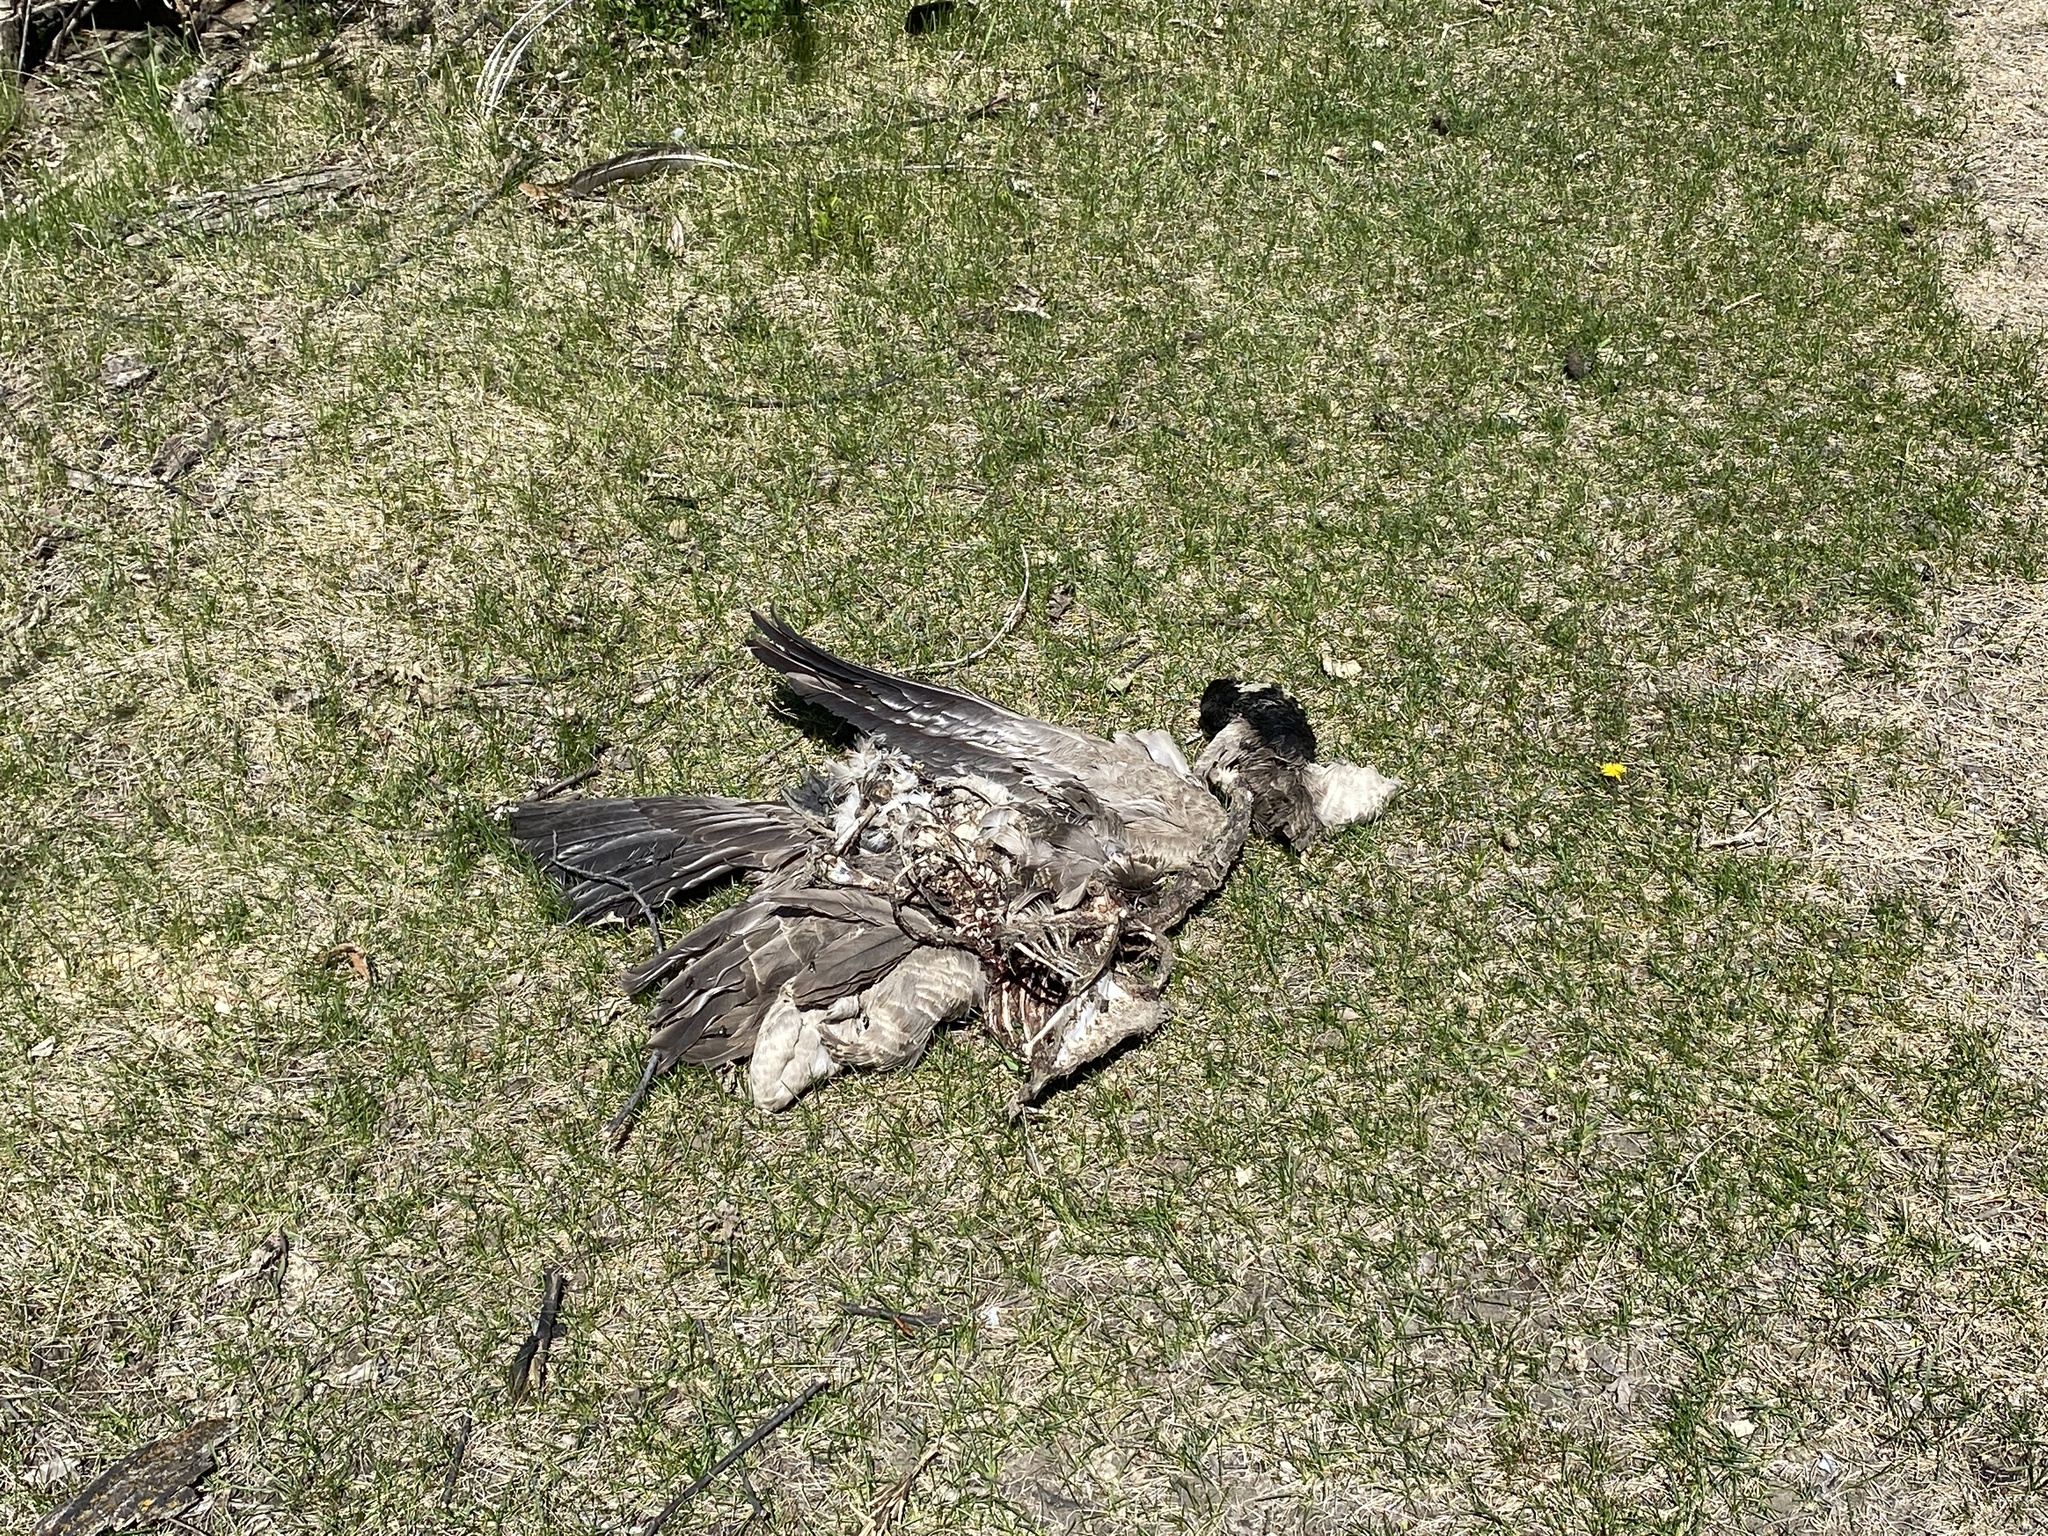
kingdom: Animalia
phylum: Chordata
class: Aves
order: Anseriformes
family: Anatidae
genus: Branta
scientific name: Branta canadensis
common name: Canada goose
